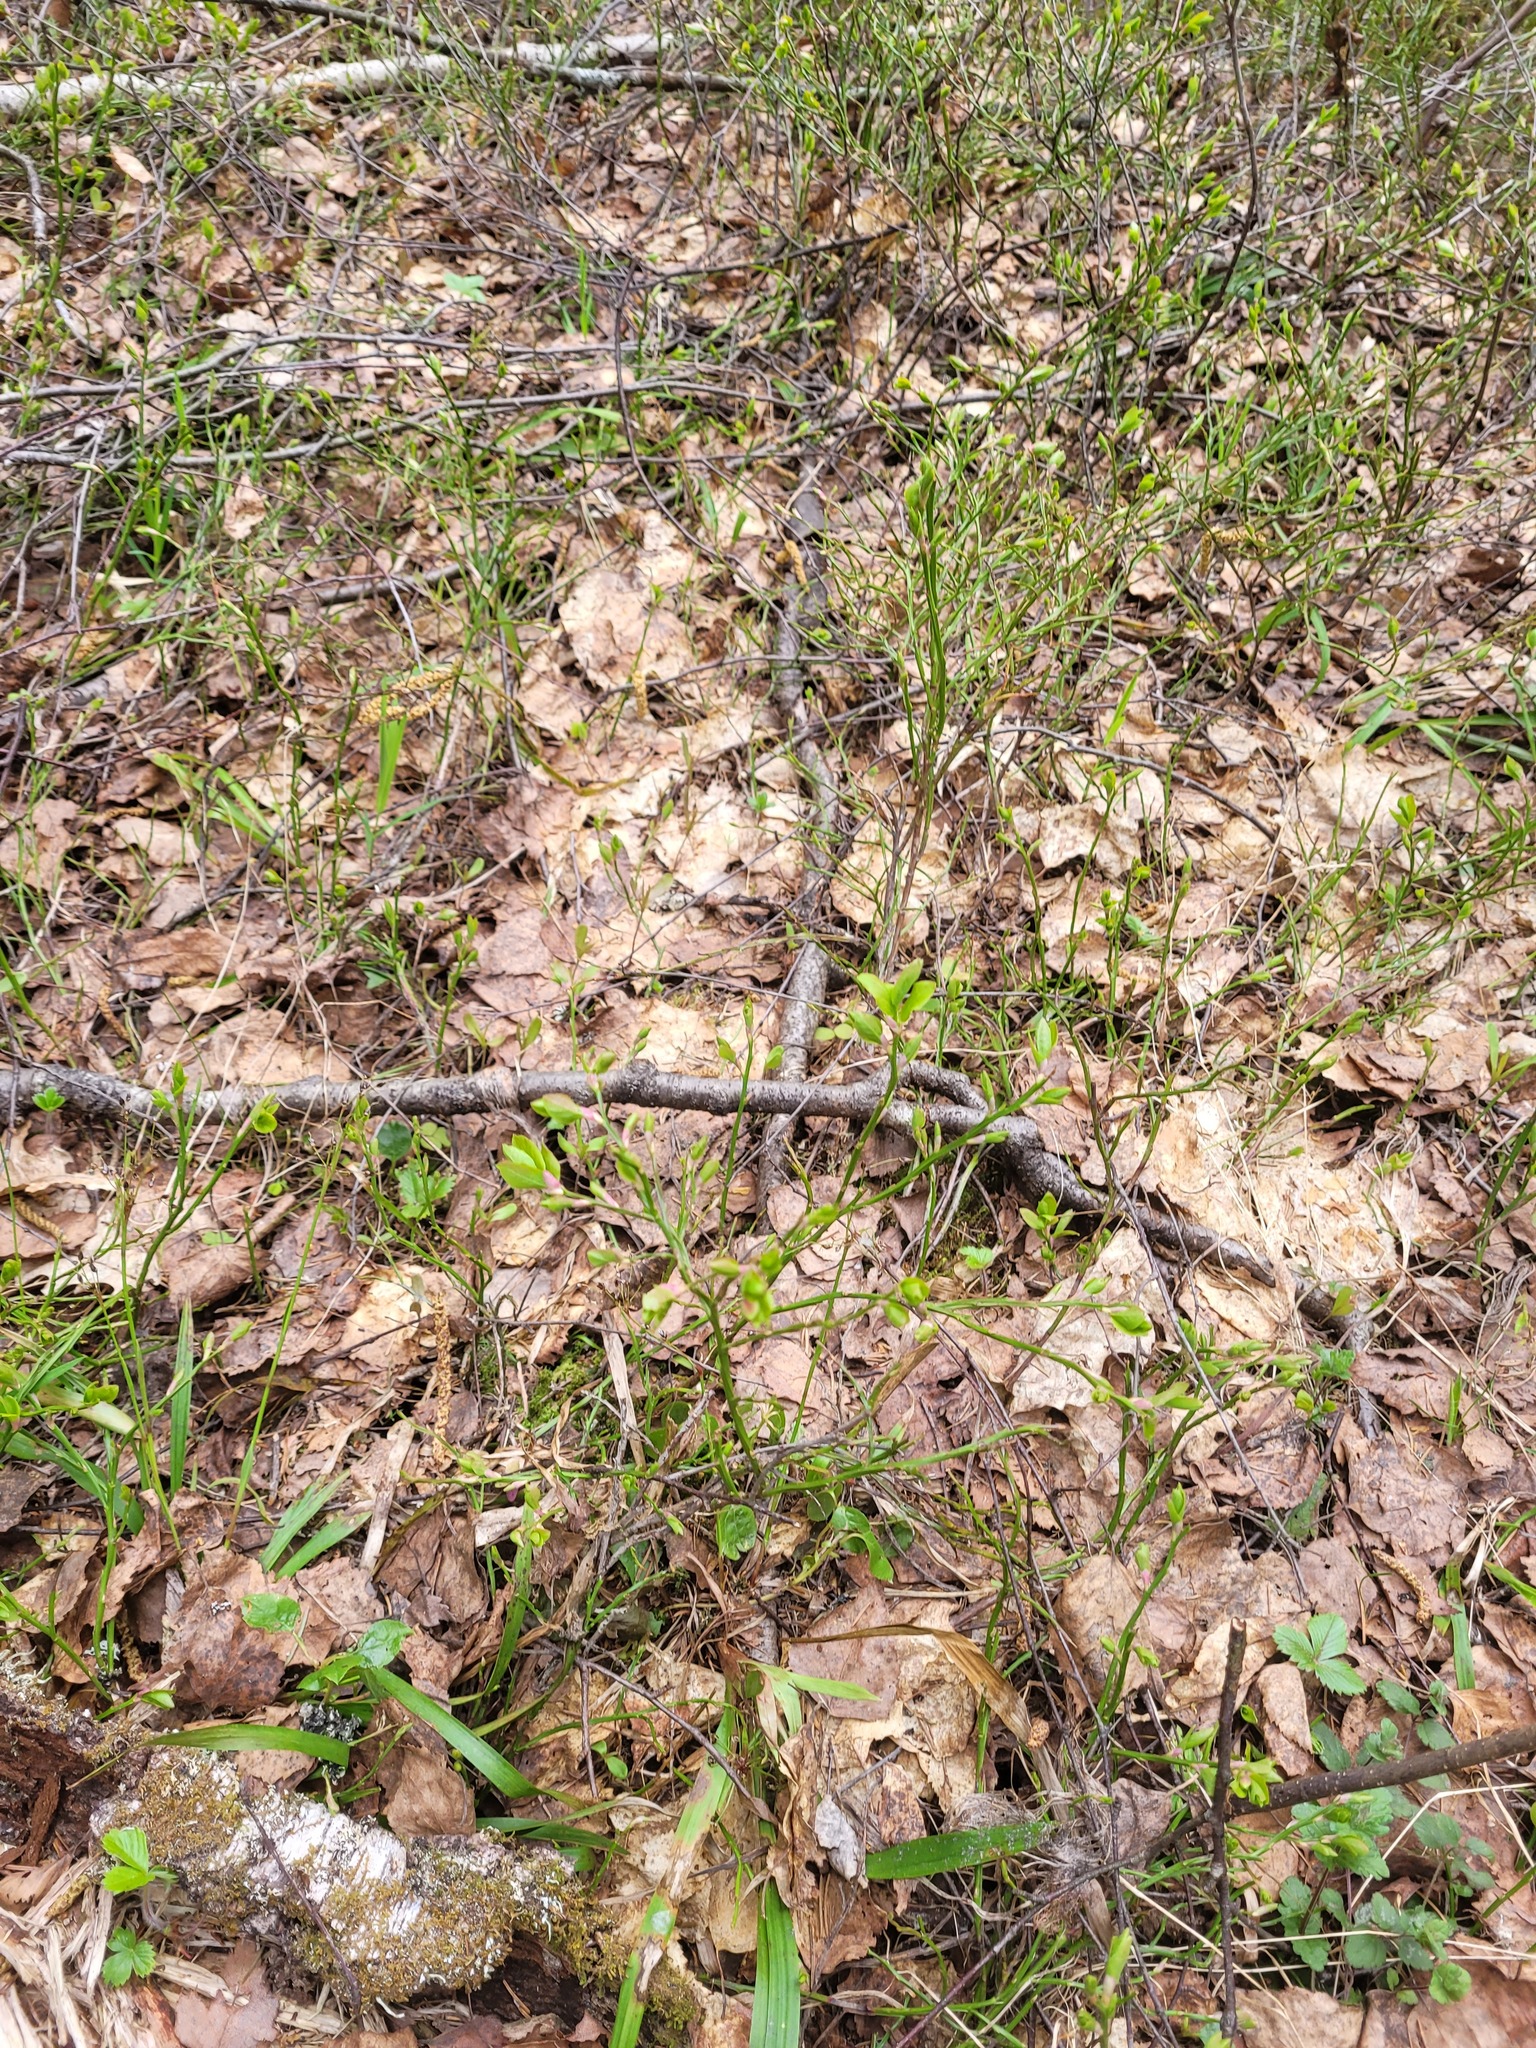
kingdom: Plantae
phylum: Tracheophyta
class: Magnoliopsida
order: Ericales
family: Ericaceae
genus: Vaccinium
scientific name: Vaccinium myrtillus
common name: Bilberry
